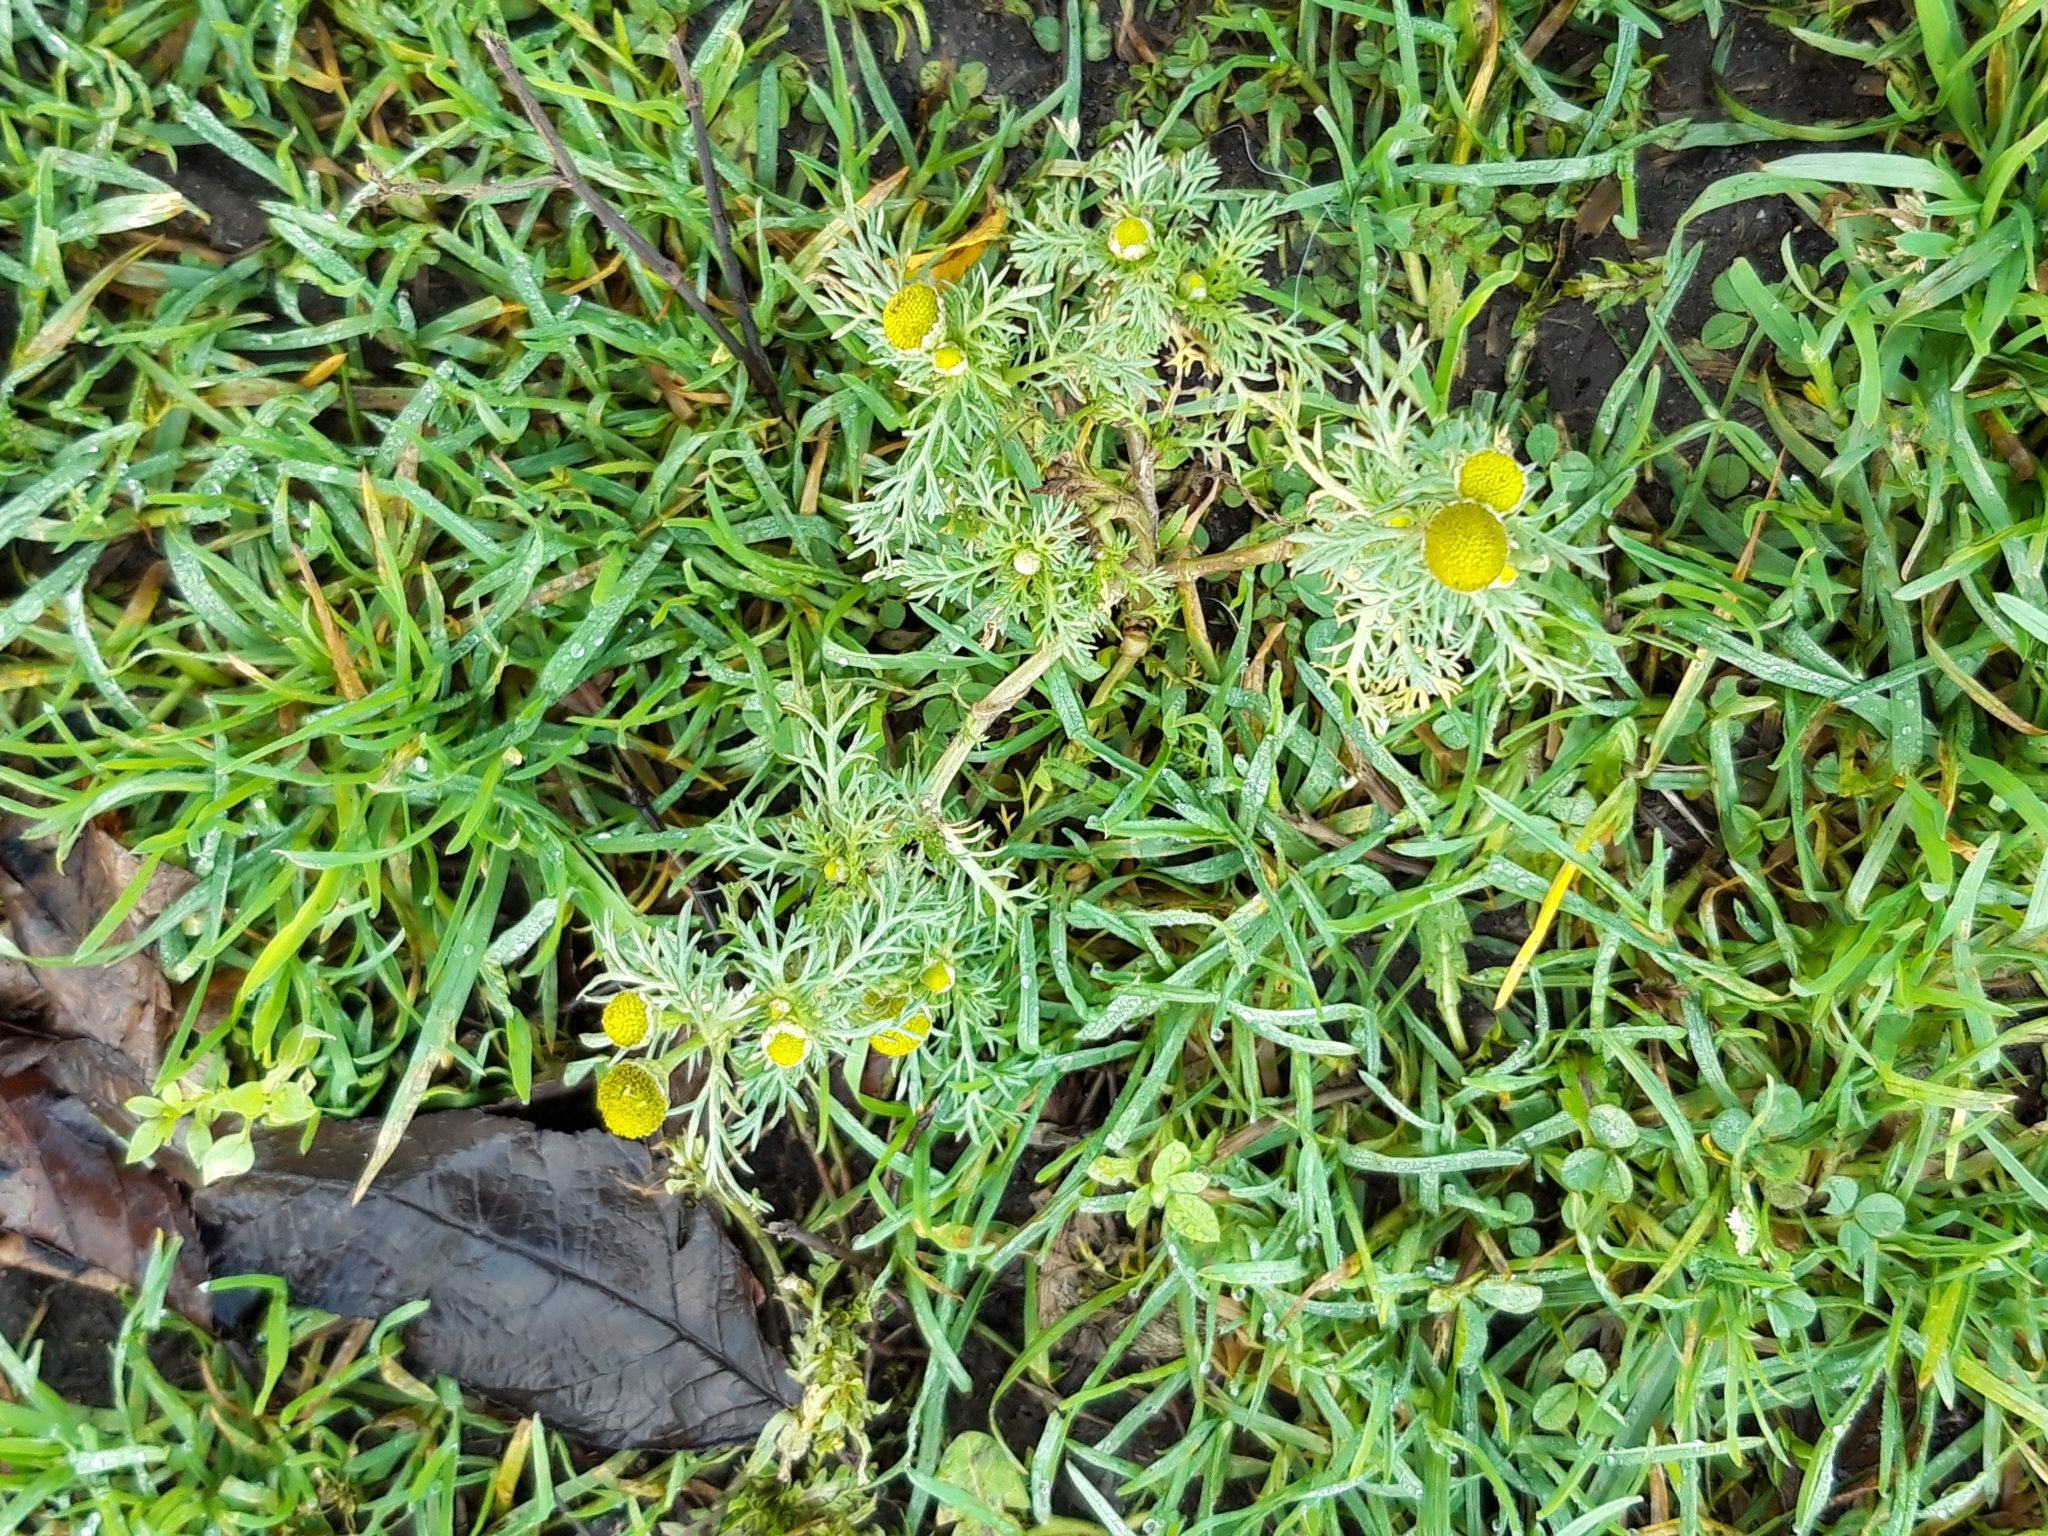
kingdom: Plantae
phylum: Tracheophyta
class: Magnoliopsida
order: Asterales
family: Asteraceae
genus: Matricaria
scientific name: Matricaria discoidea
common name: Disc mayweed
